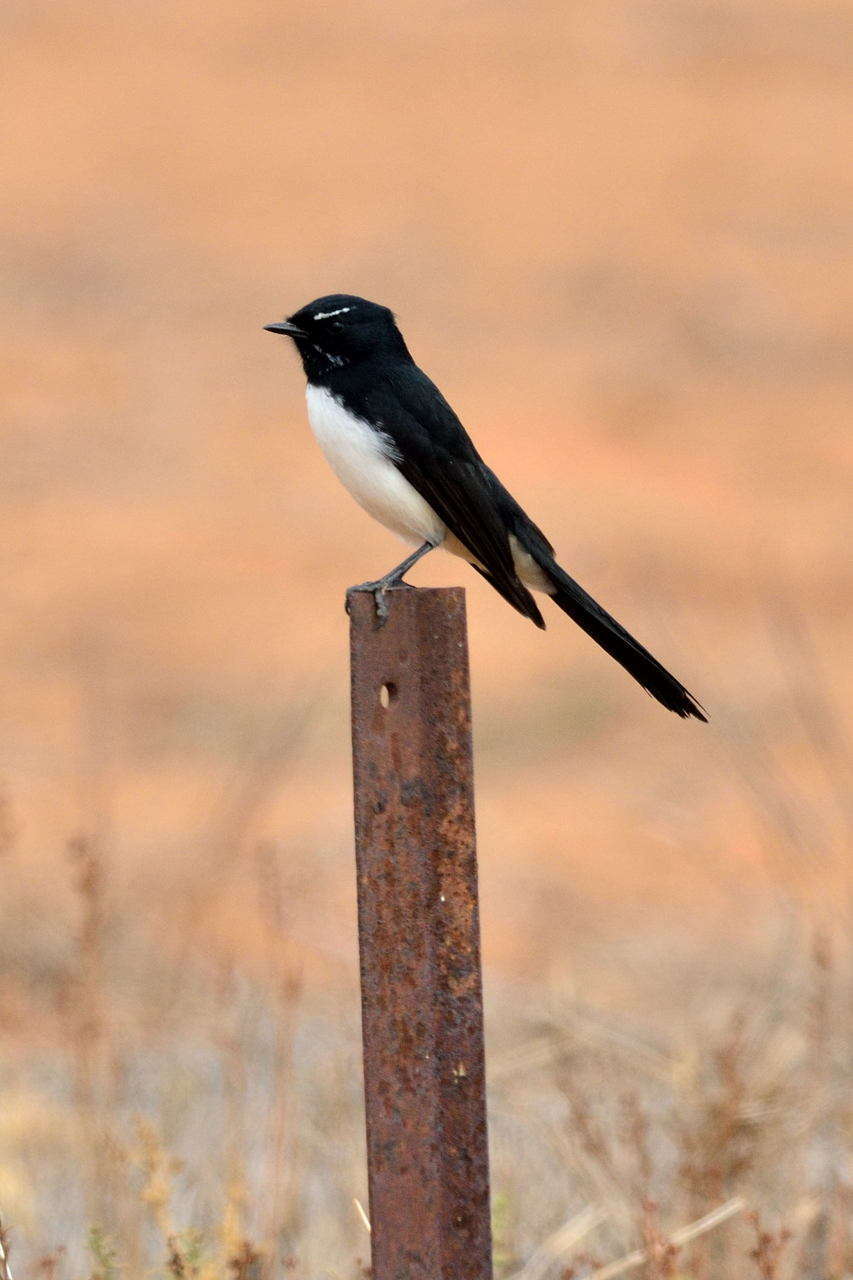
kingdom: Animalia
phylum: Chordata
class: Aves
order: Passeriformes
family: Rhipiduridae
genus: Rhipidura
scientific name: Rhipidura leucophrys
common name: Willie wagtail
